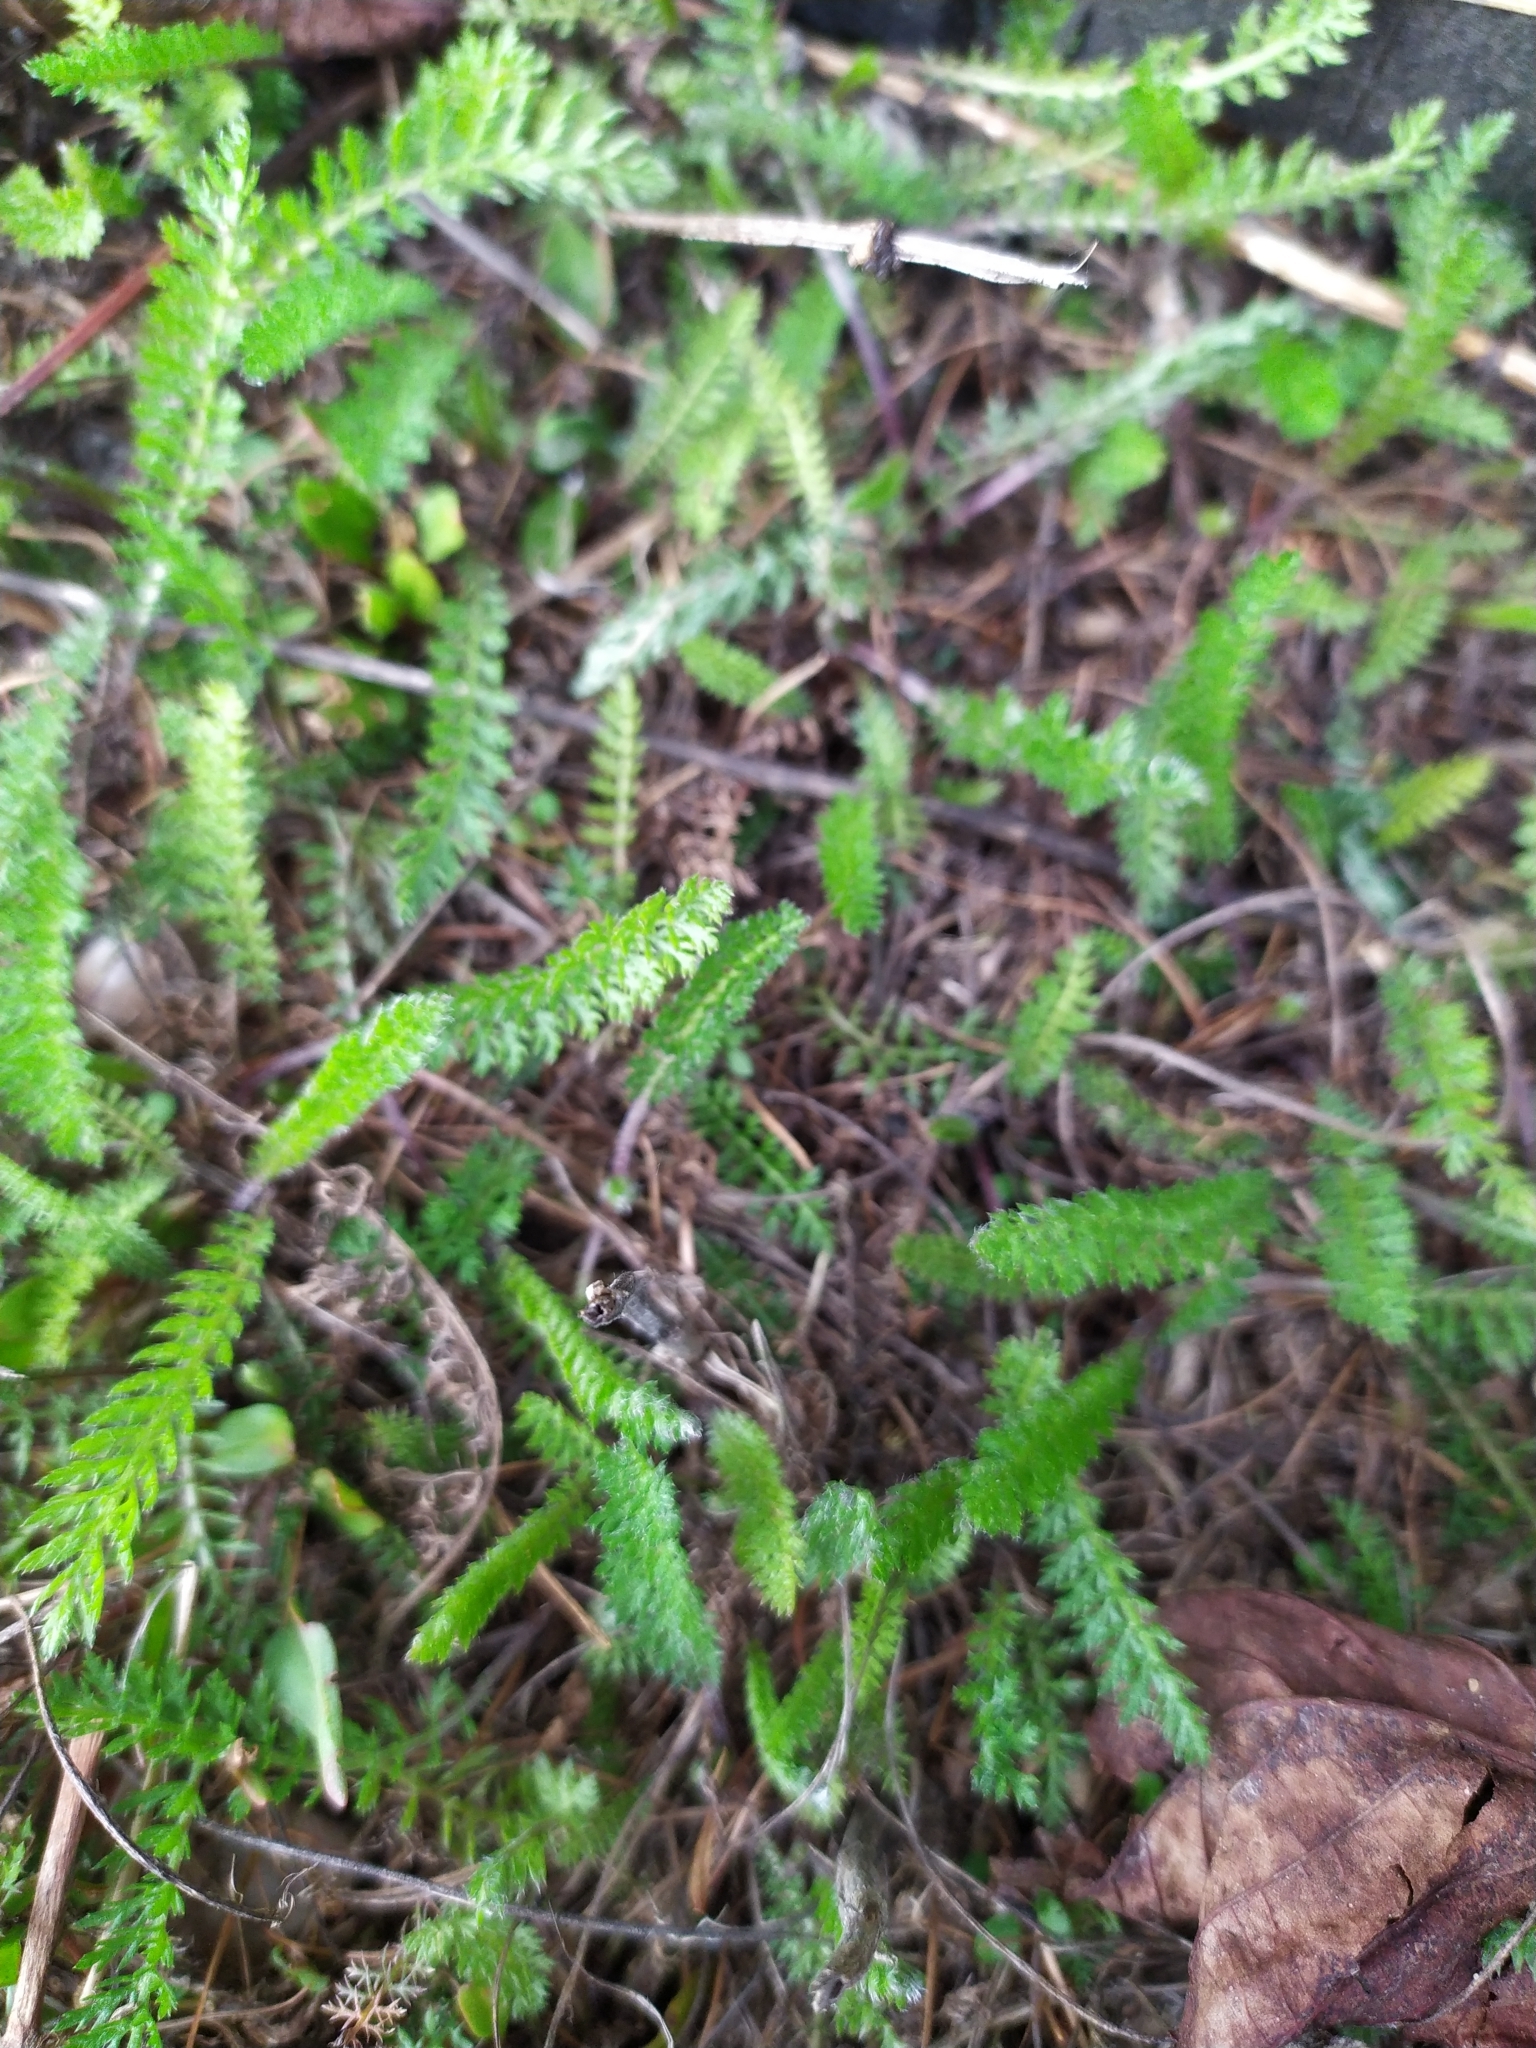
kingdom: Plantae
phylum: Tracheophyta
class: Magnoliopsida
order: Asterales
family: Asteraceae
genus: Achillea
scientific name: Achillea millefolium
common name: Yarrow
